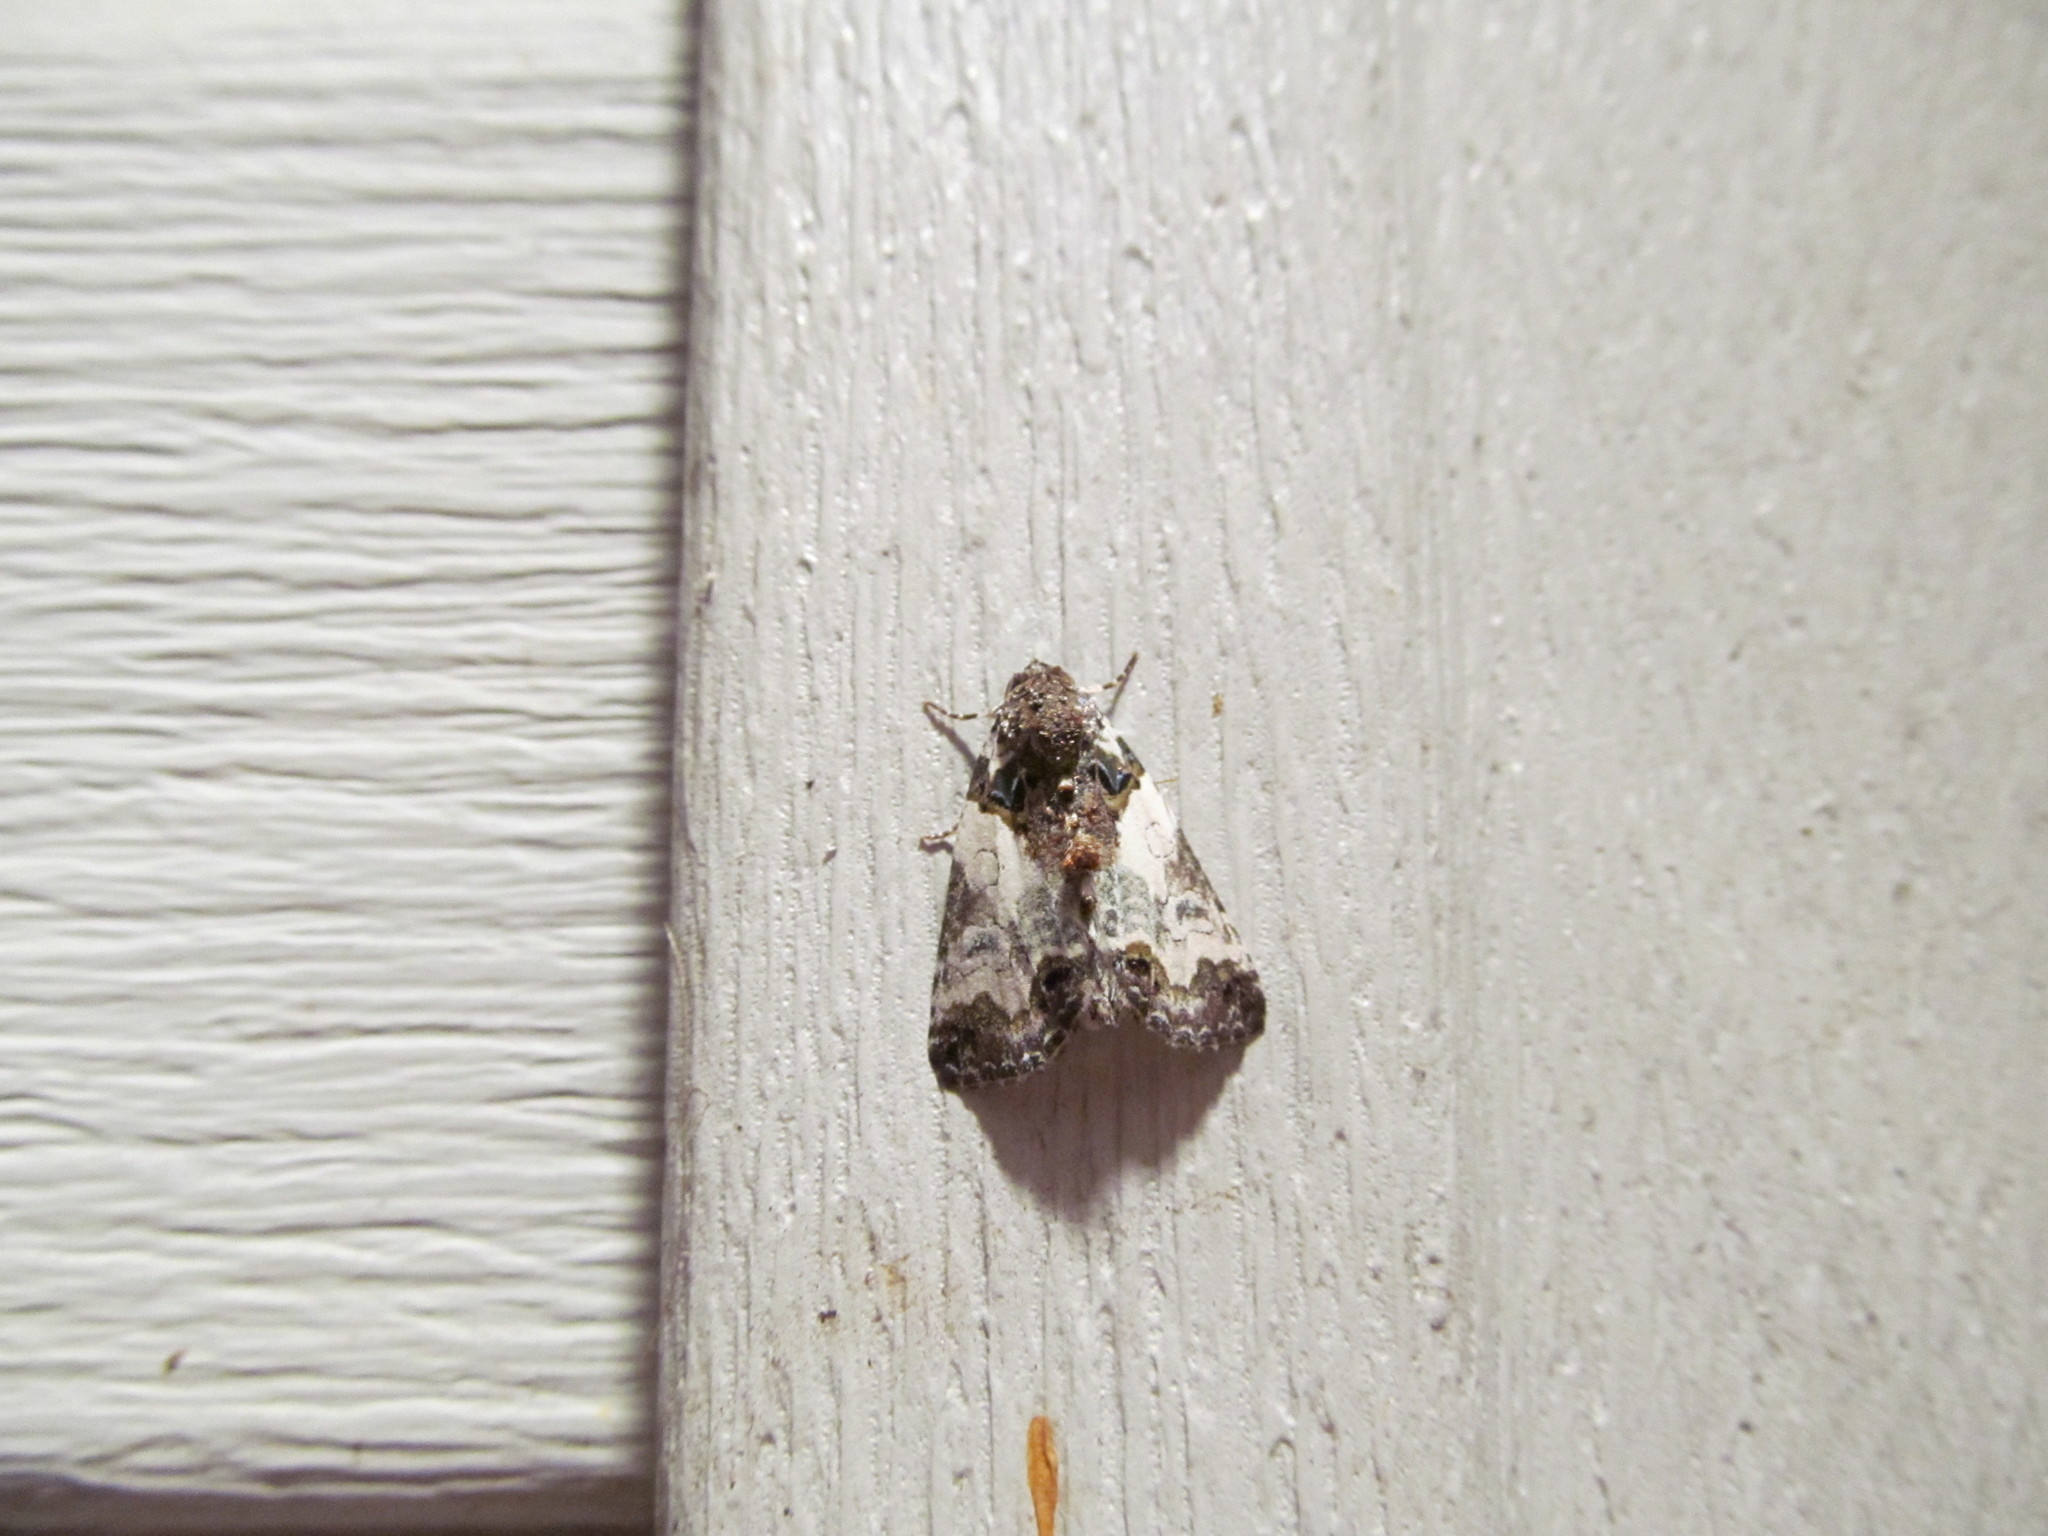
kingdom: Animalia
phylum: Arthropoda
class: Insecta
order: Lepidoptera
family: Noctuidae
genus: Cerma
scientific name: Cerma cerintha
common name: Tufted bird-dropping moth
